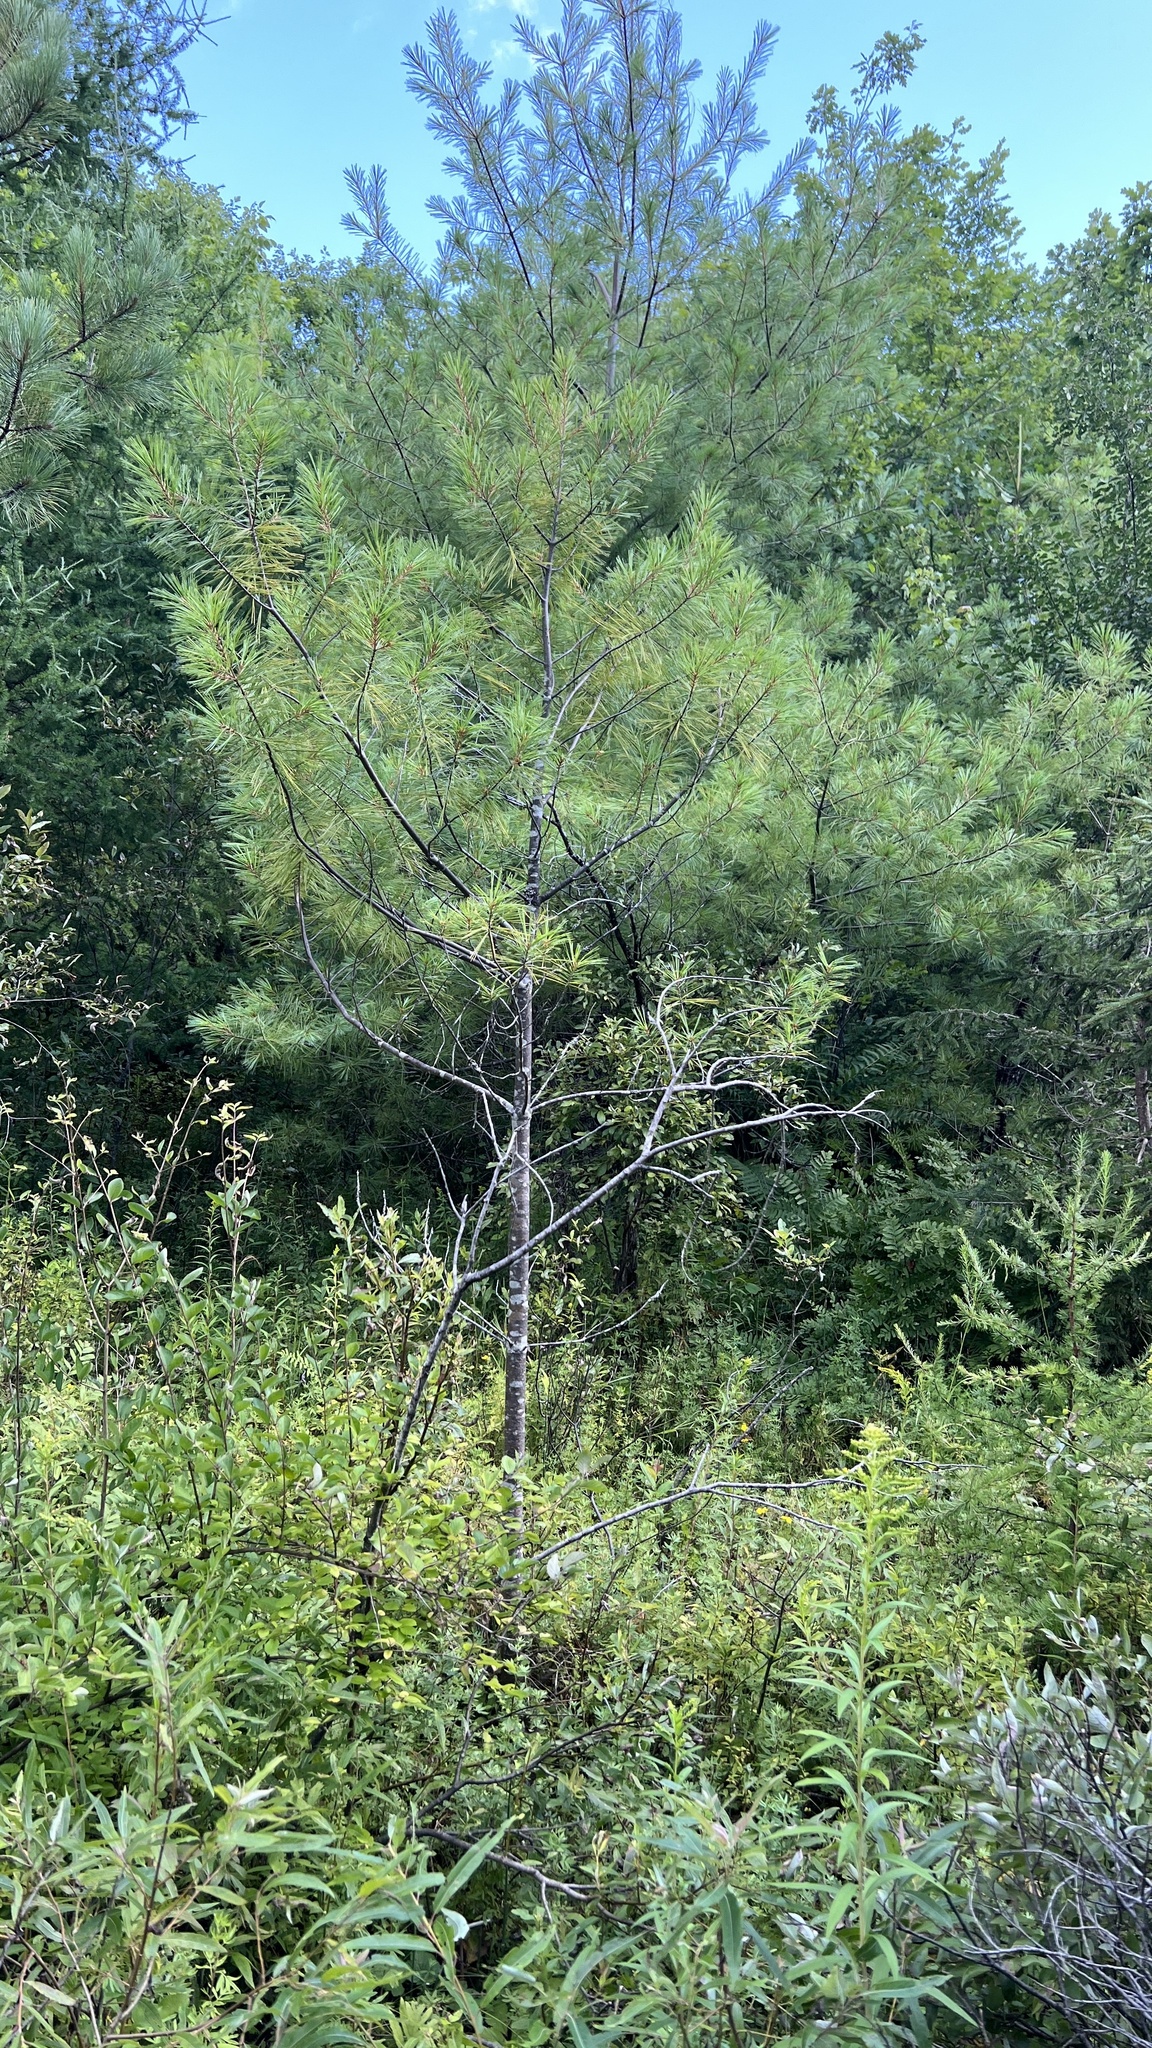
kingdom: Plantae
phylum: Tracheophyta
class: Pinopsida
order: Pinales
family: Pinaceae
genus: Pinus
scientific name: Pinus strobus
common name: Weymouth pine
